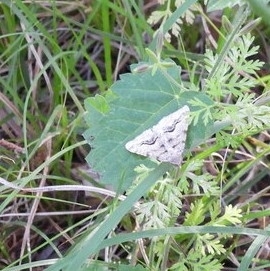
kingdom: Animalia
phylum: Arthropoda
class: Insecta
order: Lepidoptera
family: Geometridae
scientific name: Geometridae
